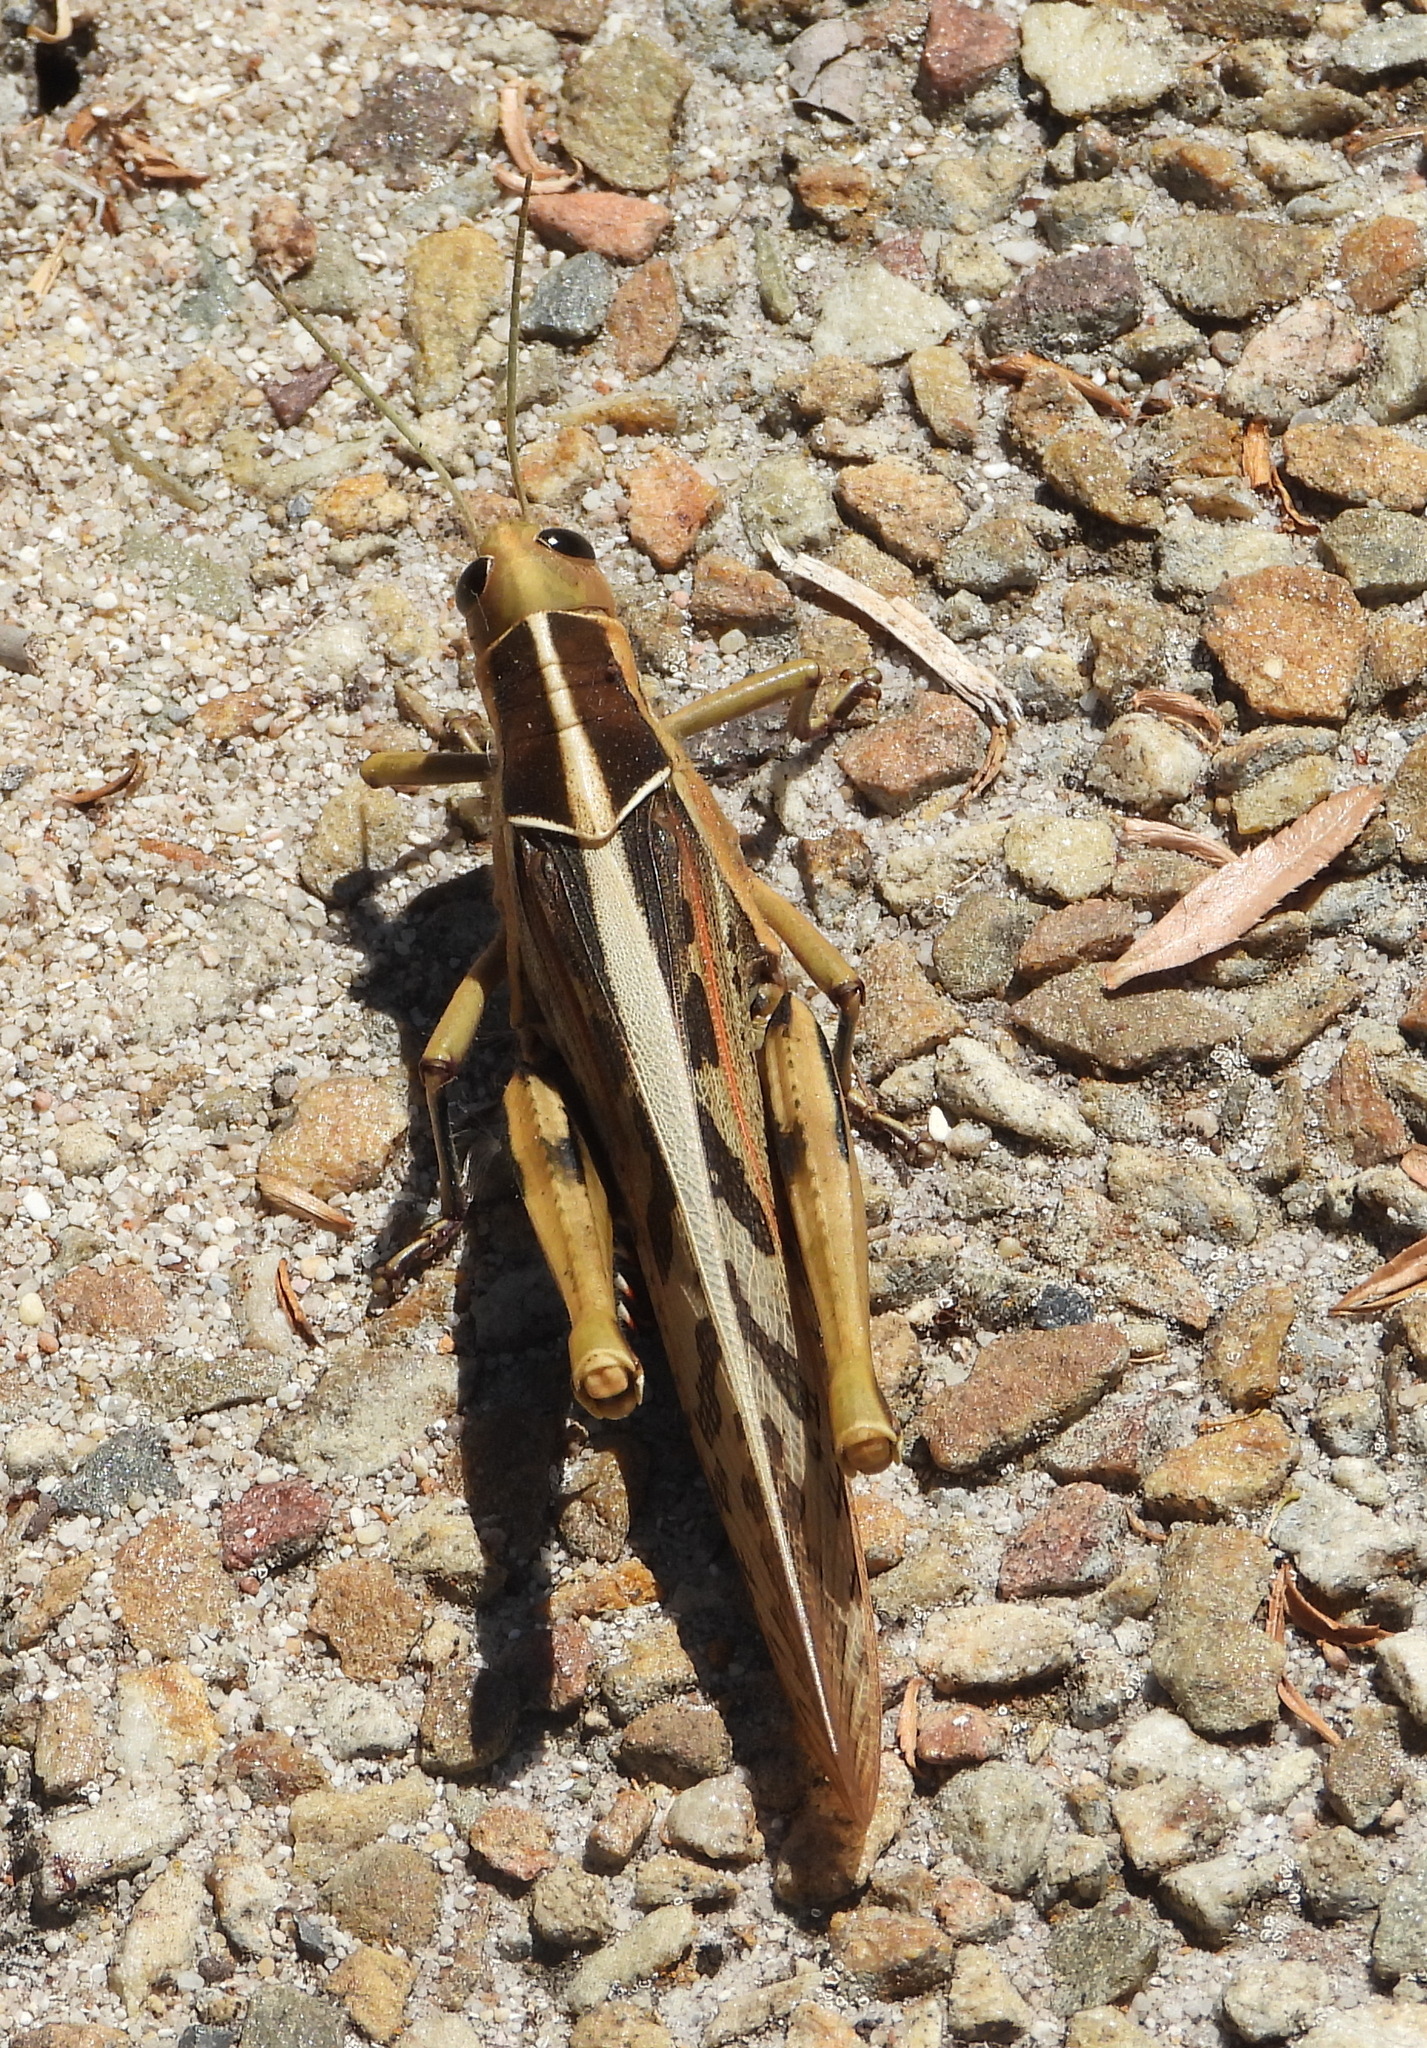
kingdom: Animalia
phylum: Arthropoda
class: Insecta
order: Orthoptera
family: Acrididae
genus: Acanthacris
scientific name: Acanthacris ruficornis
